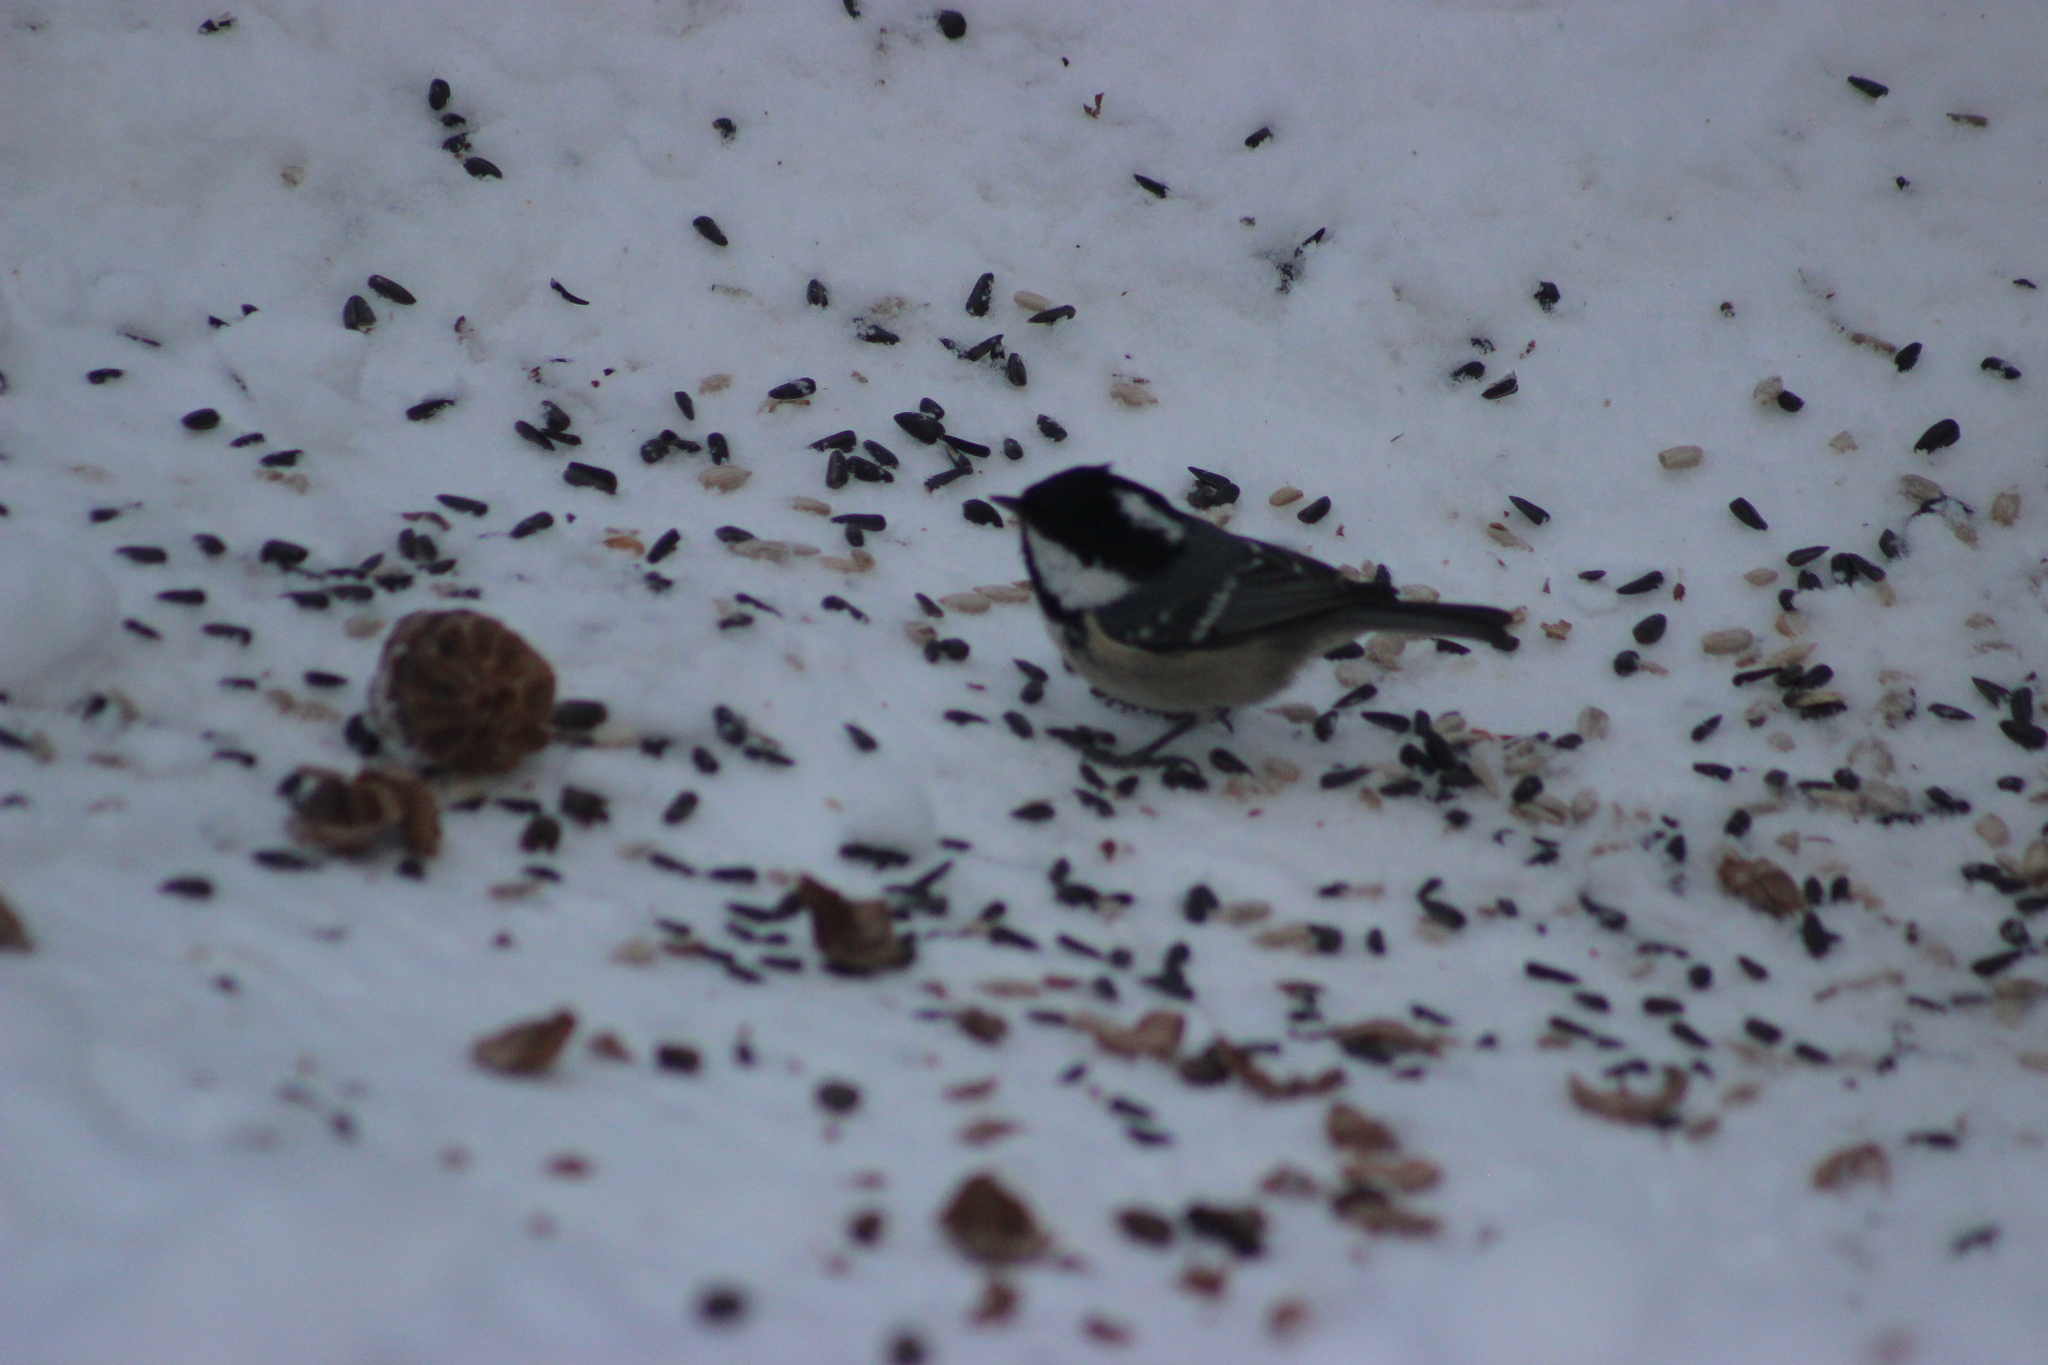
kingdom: Animalia
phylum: Chordata
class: Aves
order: Passeriformes
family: Paridae
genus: Periparus
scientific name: Periparus ater
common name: Coal tit
